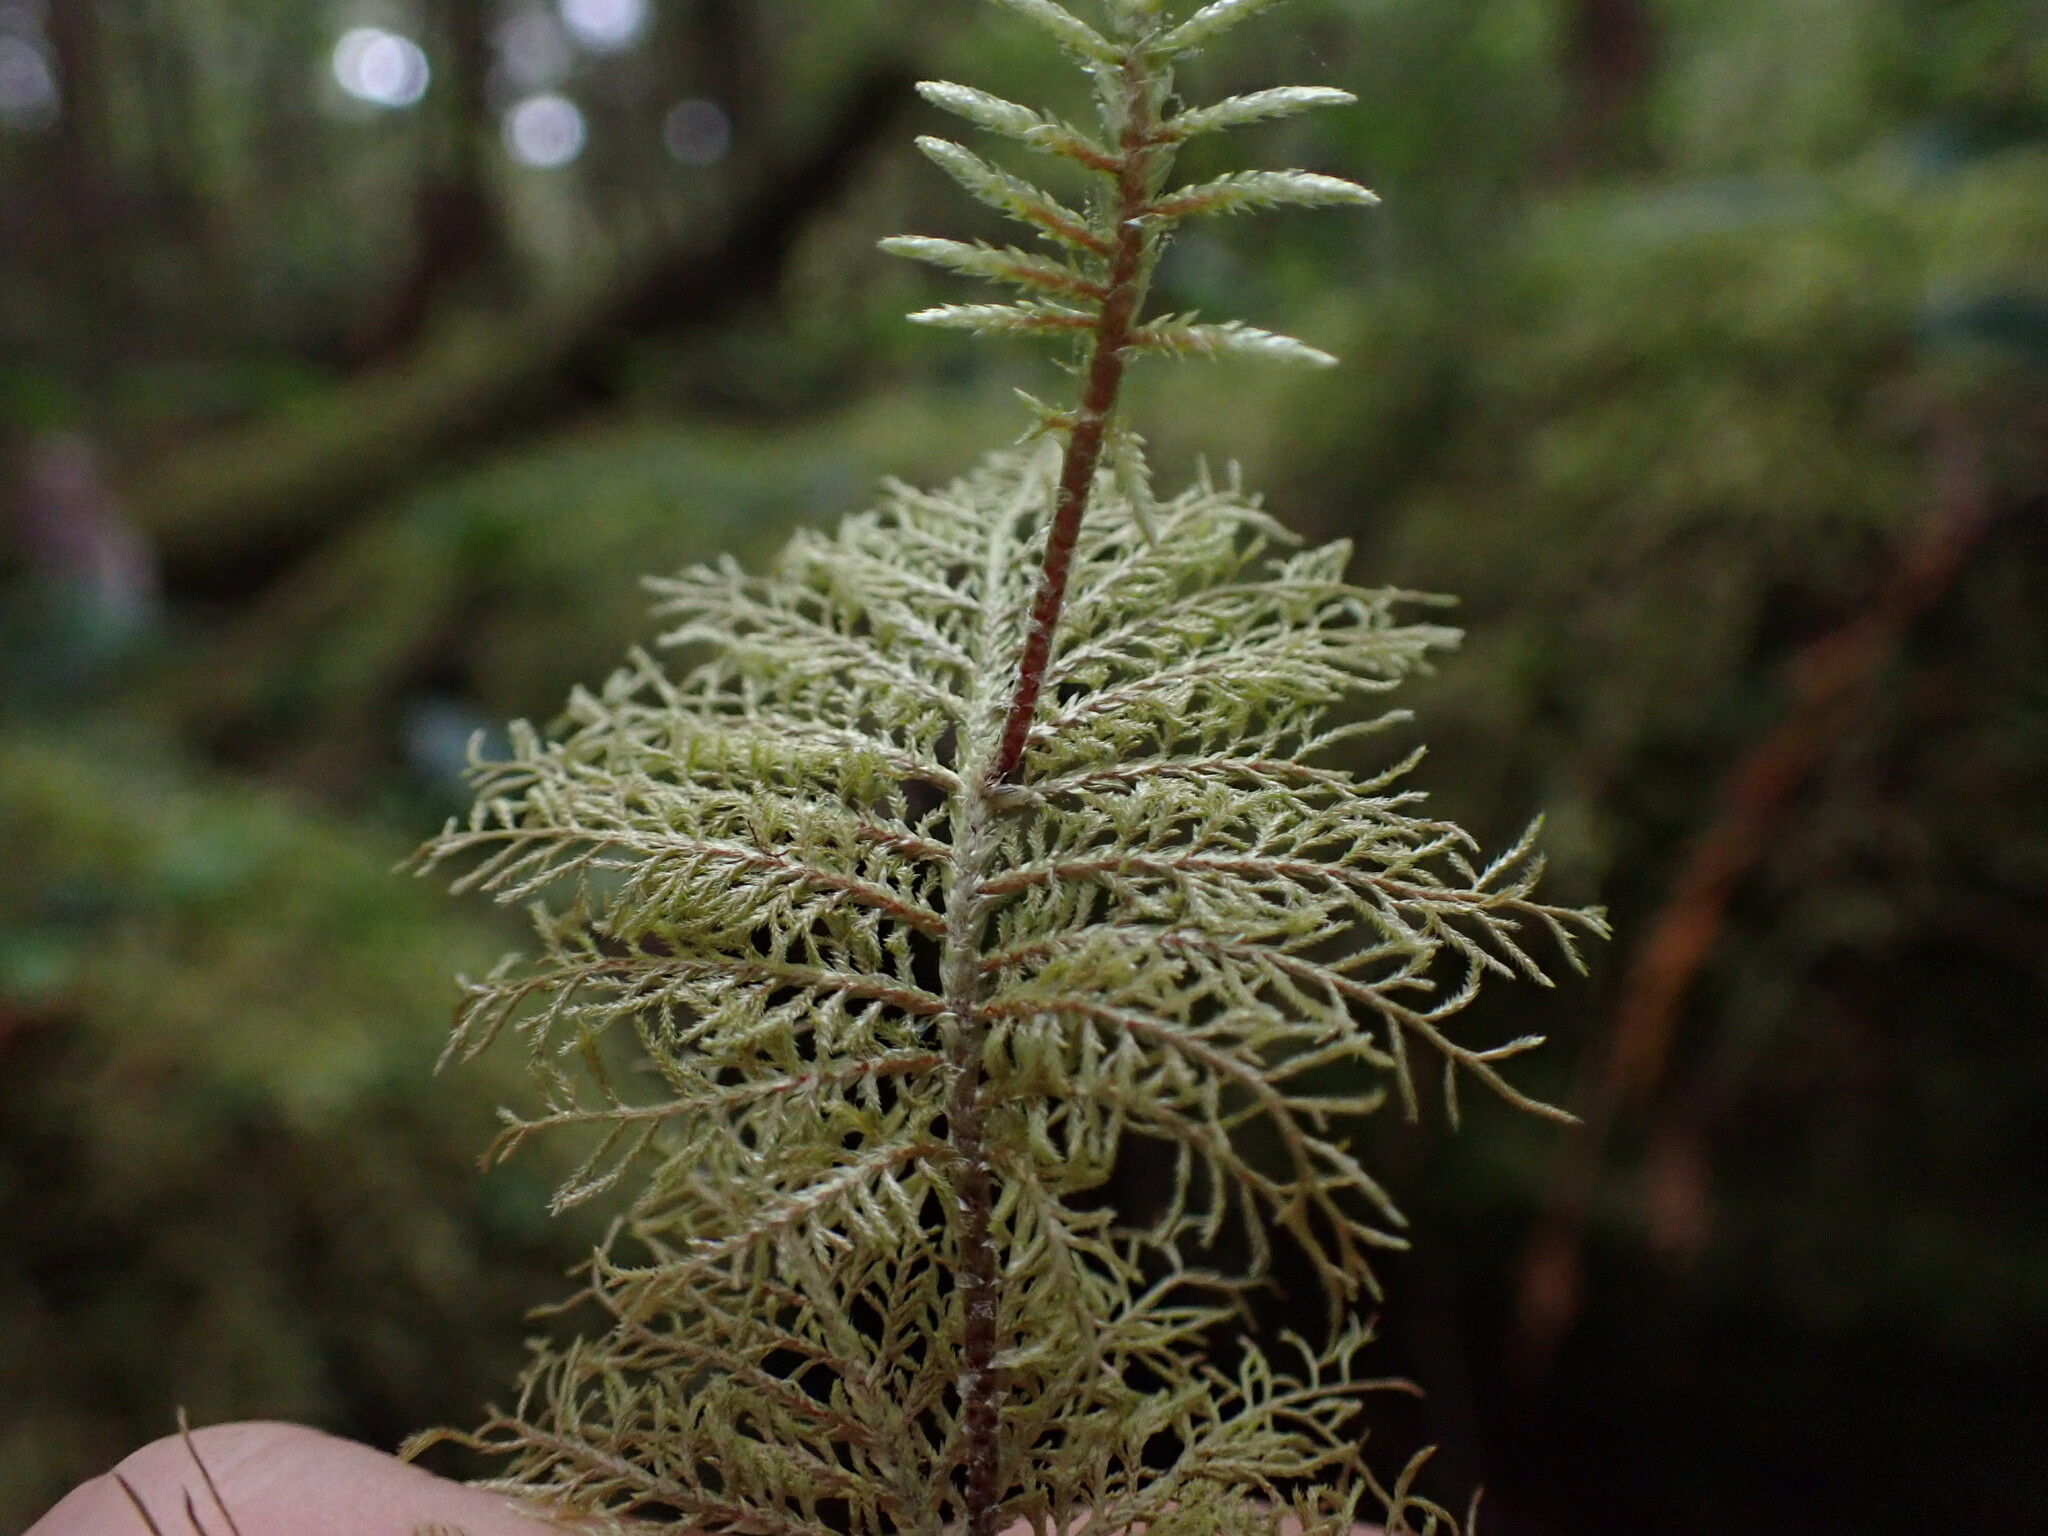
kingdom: Plantae
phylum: Bryophyta
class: Bryopsida
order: Hypnales
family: Hylocomiaceae
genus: Hylocomium
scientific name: Hylocomium splendens
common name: Stairstep moss
